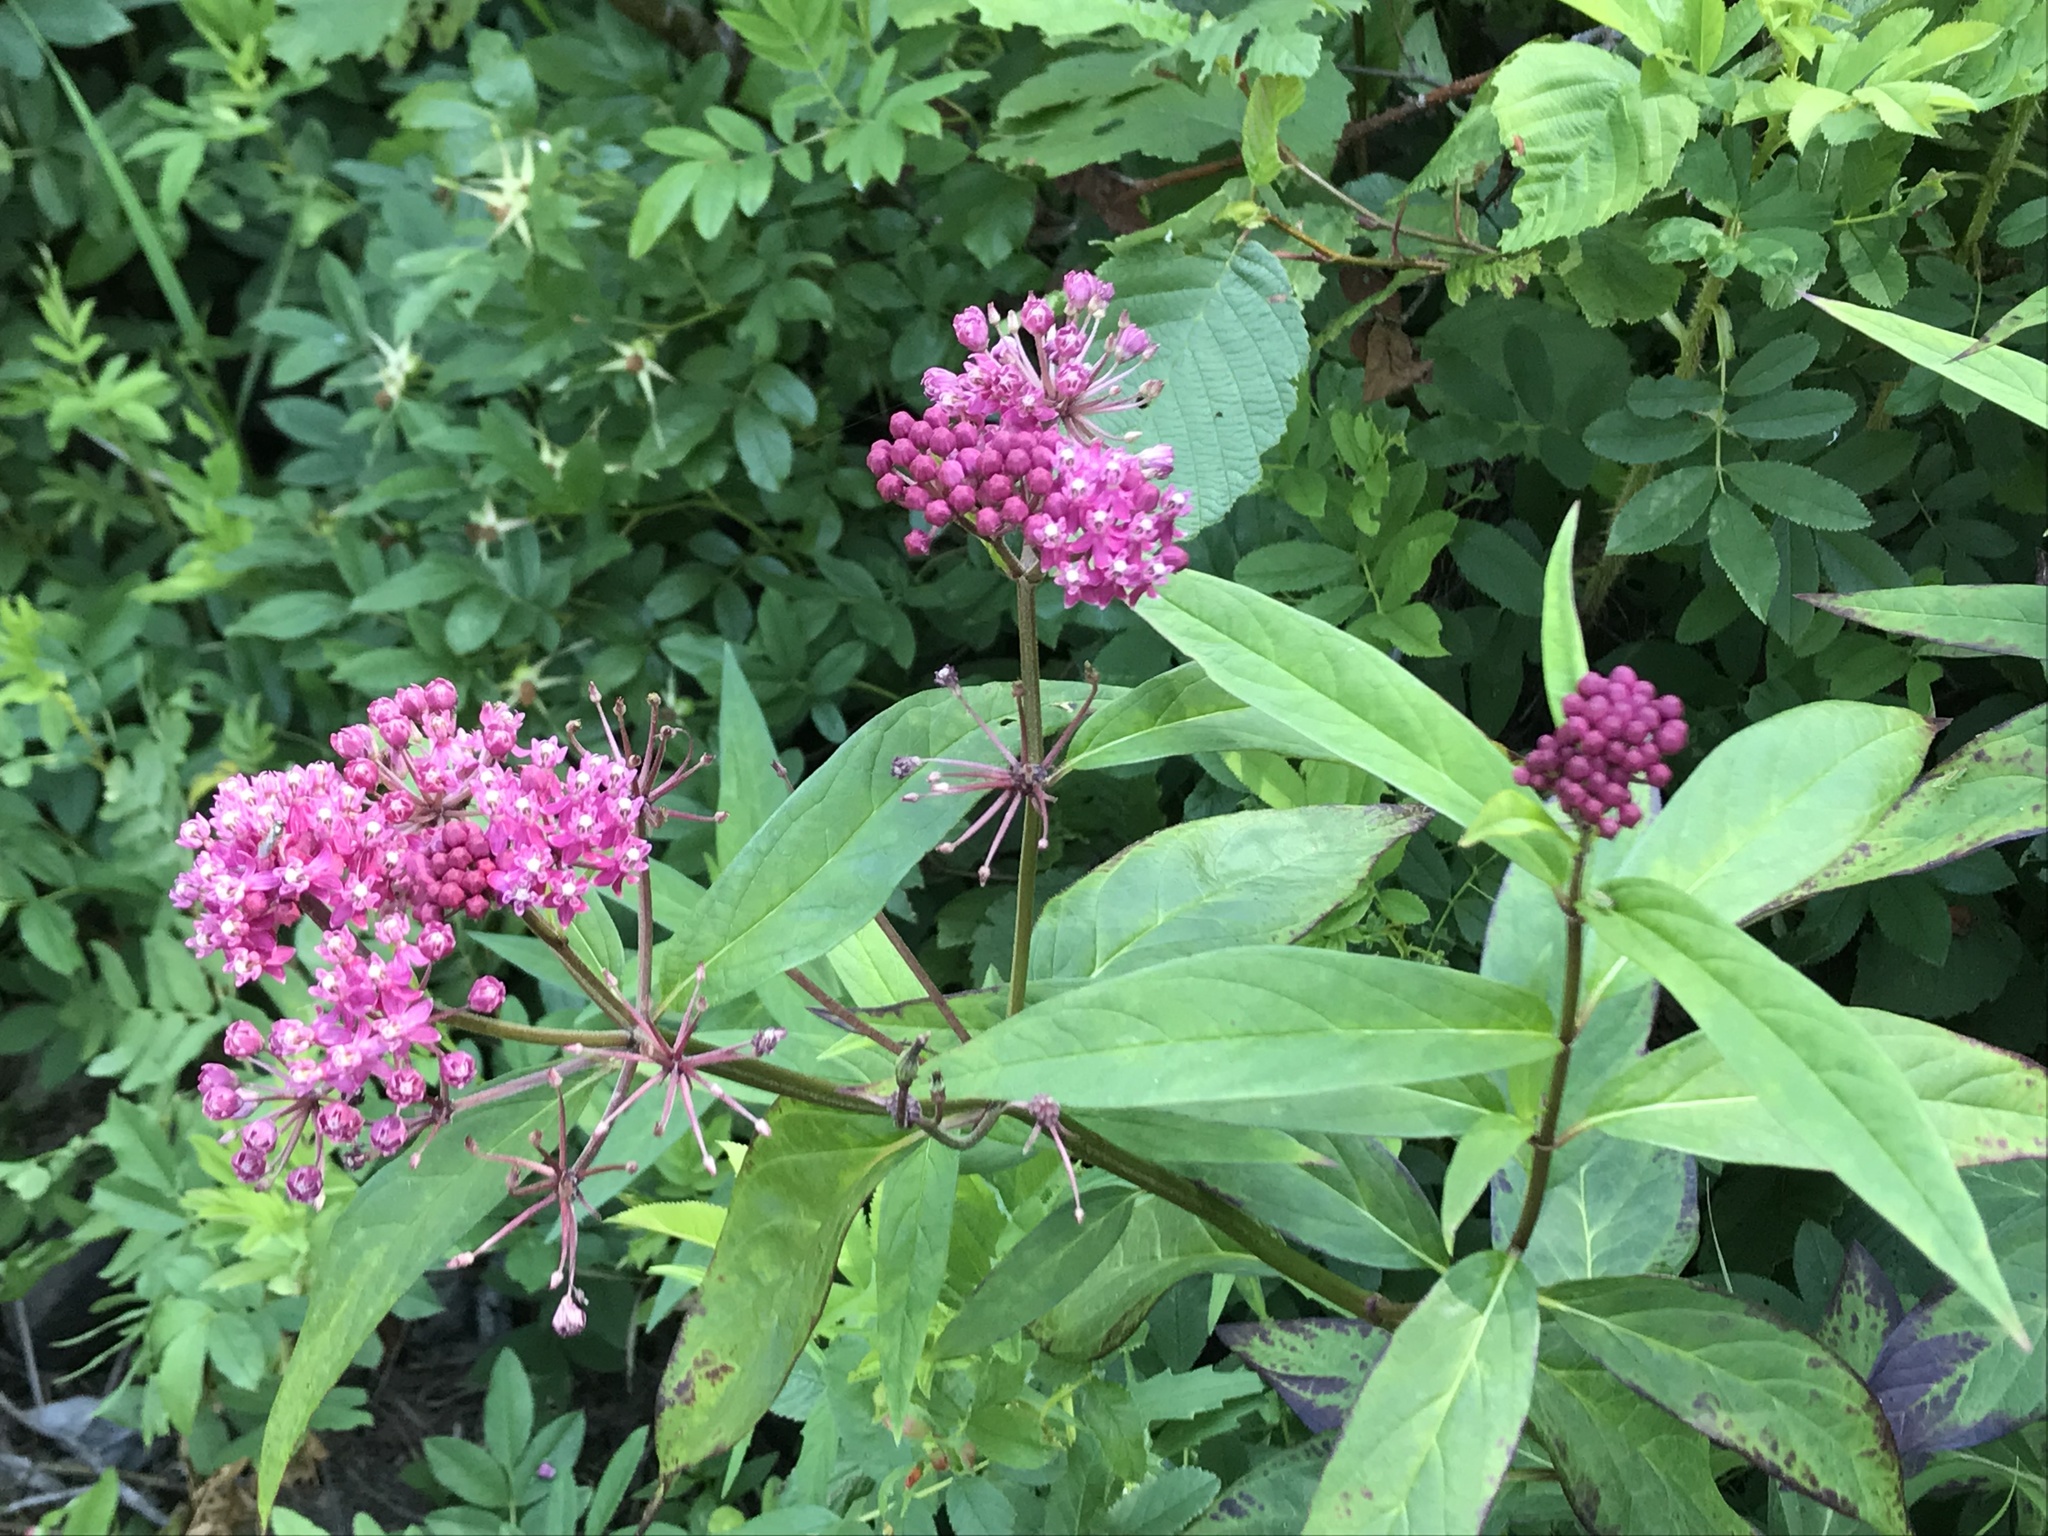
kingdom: Plantae
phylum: Tracheophyta
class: Magnoliopsida
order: Gentianales
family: Apocynaceae
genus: Asclepias
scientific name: Asclepias incarnata
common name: Swamp milkweed
